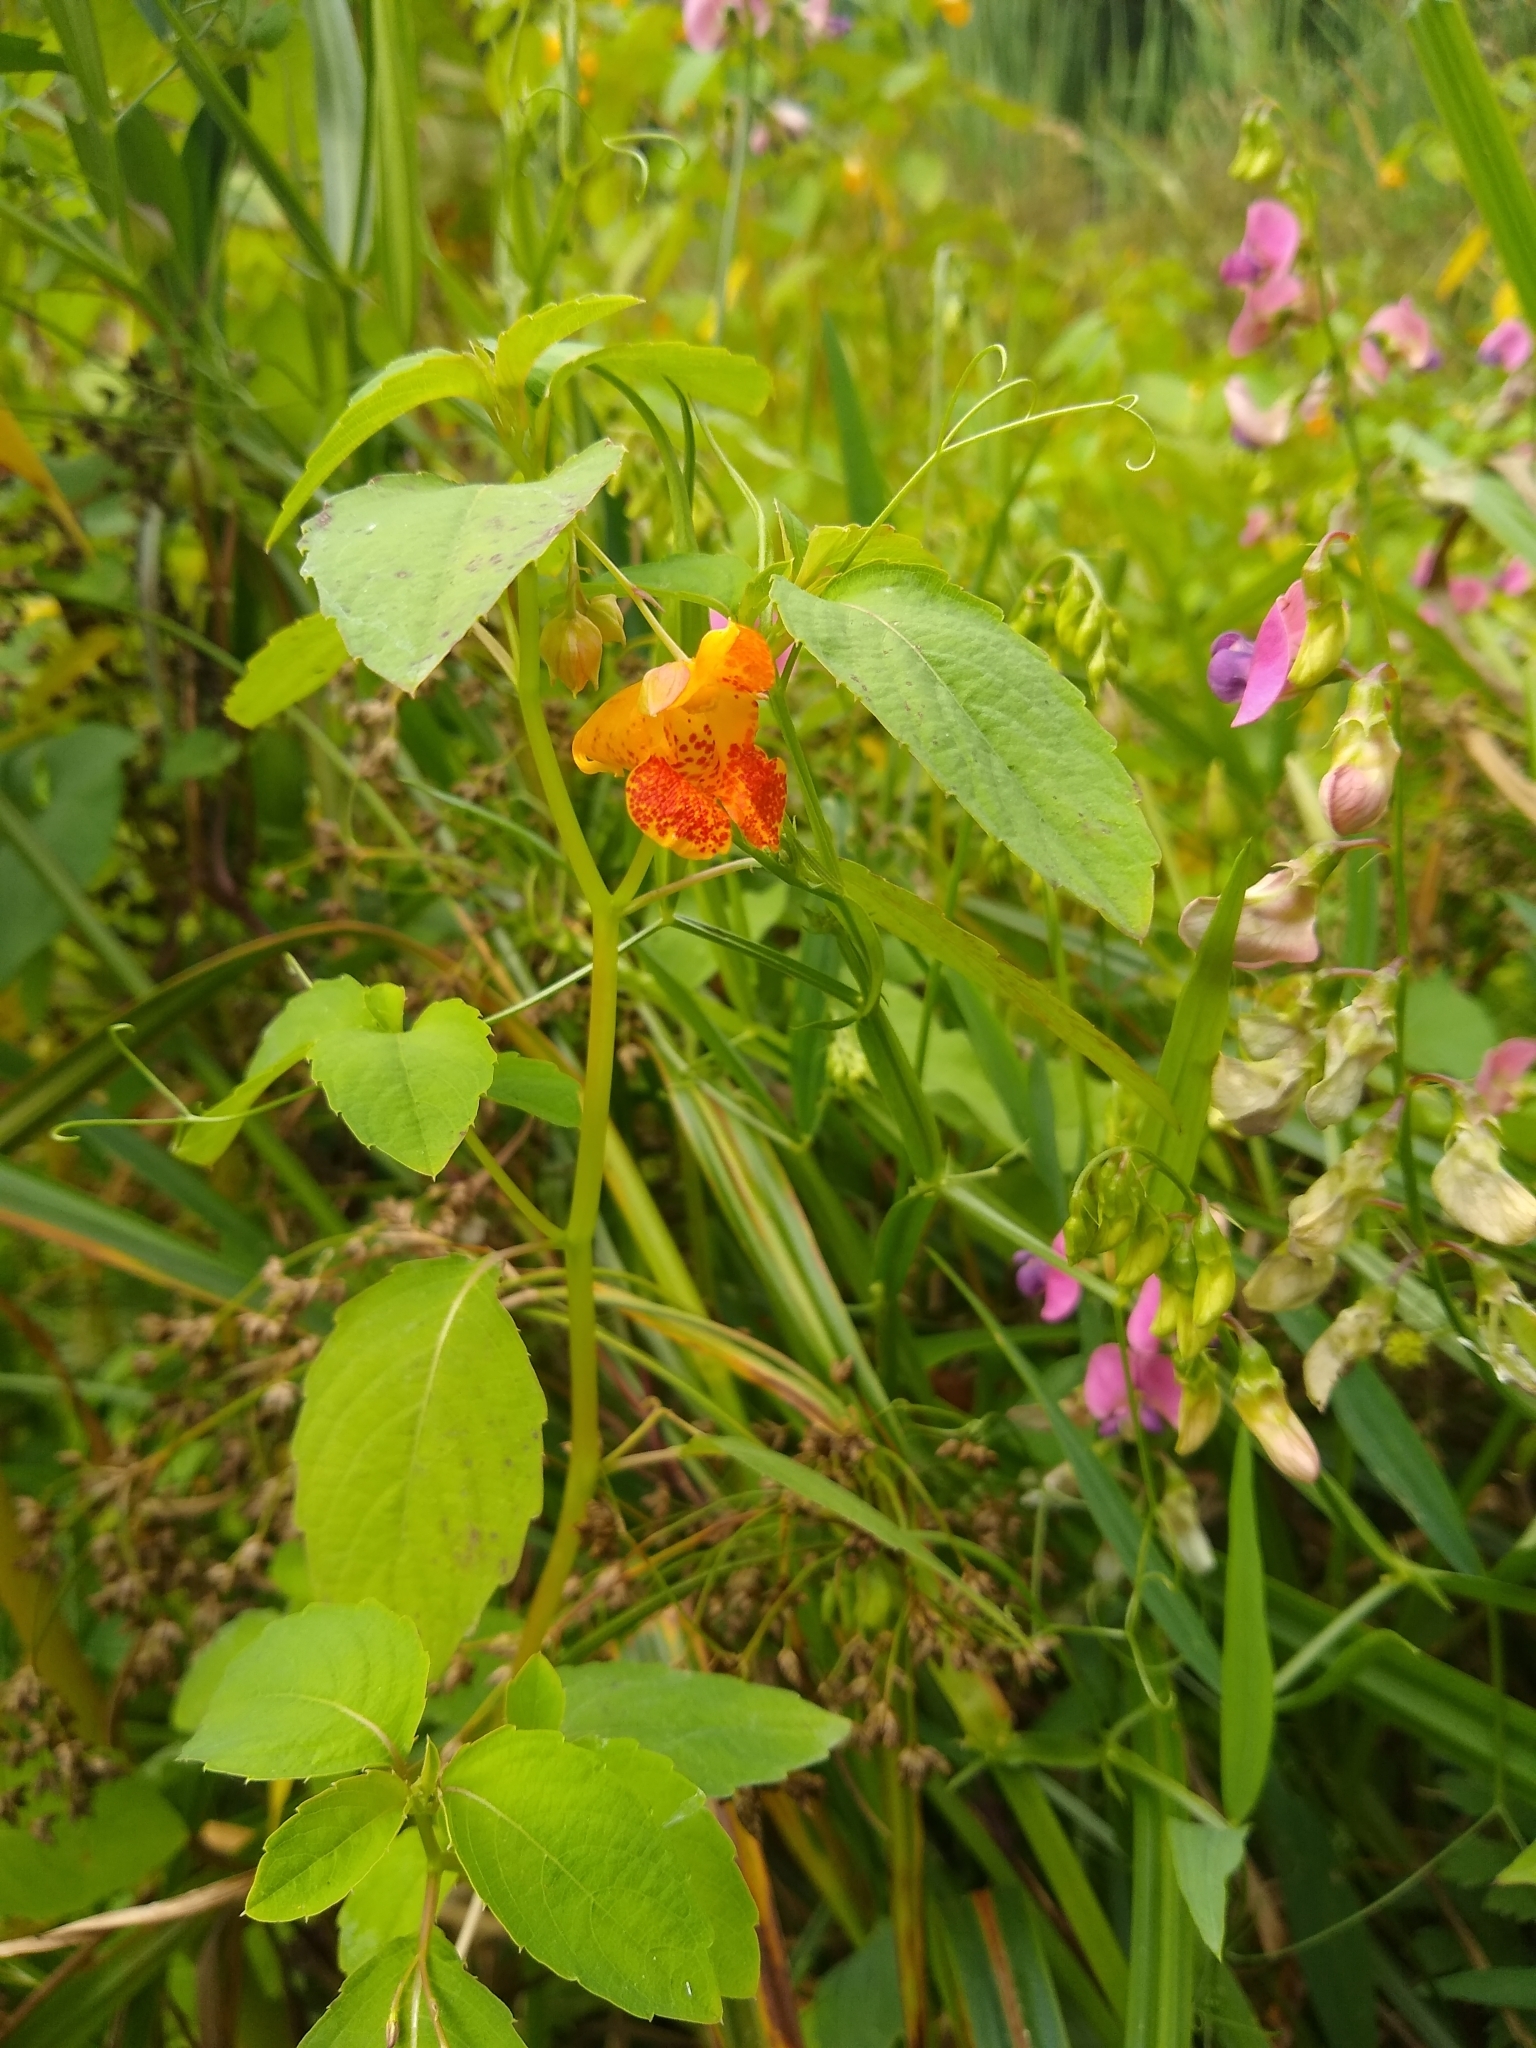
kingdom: Plantae
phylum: Tracheophyta
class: Magnoliopsida
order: Ericales
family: Balsaminaceae
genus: Impatiens
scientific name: Impatiens capensis
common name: Orange balsam
